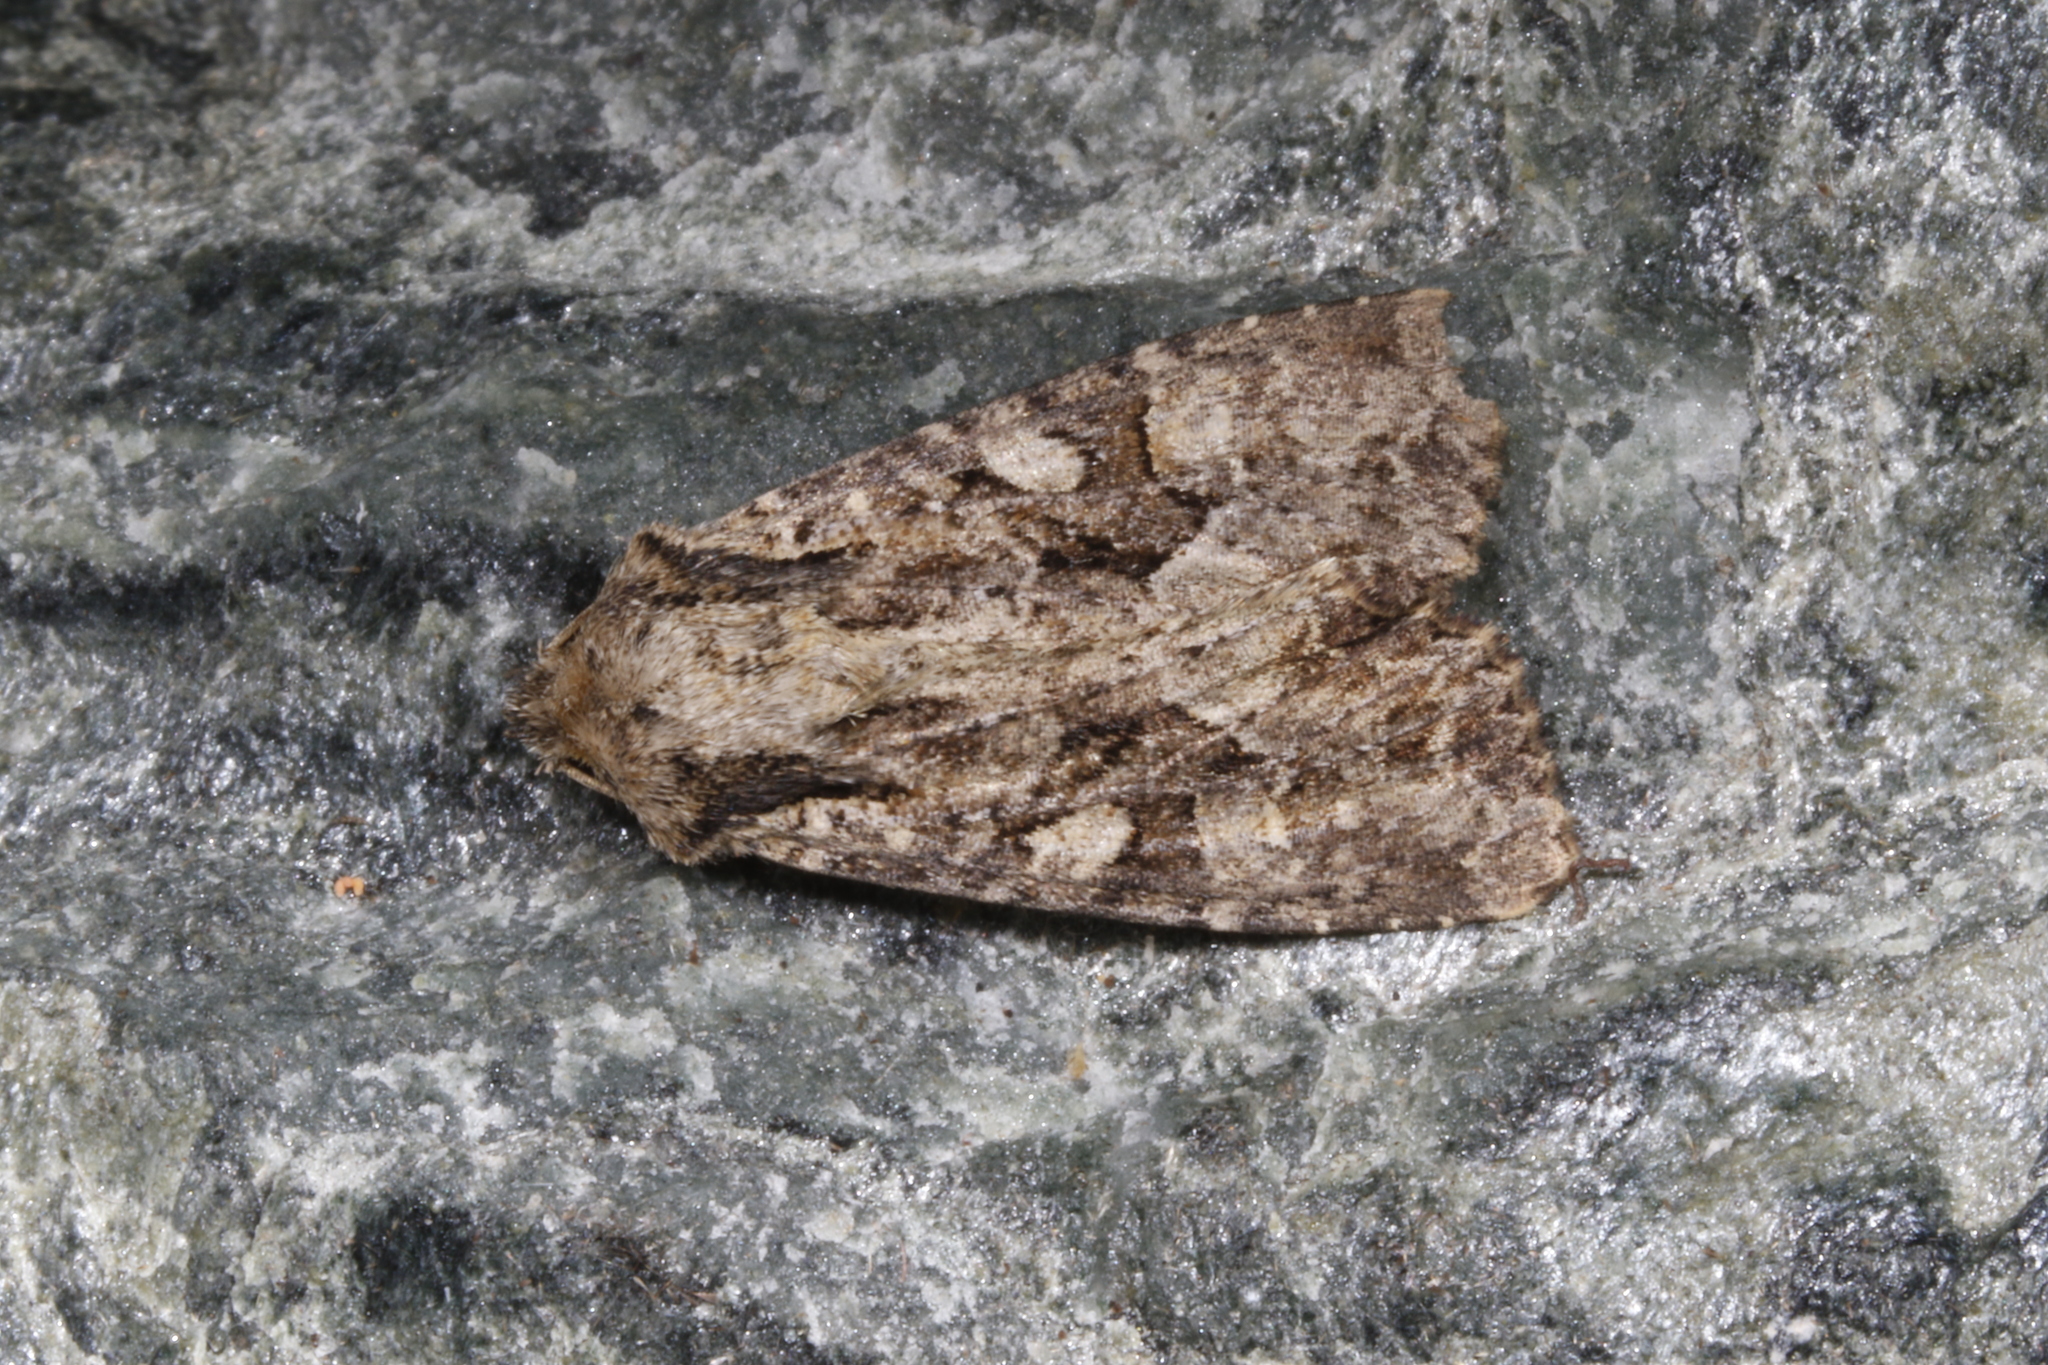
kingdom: Animalia
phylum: Arthropoda
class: Insecta
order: Lepidoptera
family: Noctuidae
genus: Apamea
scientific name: Apamea remissa
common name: Dusky brocade
